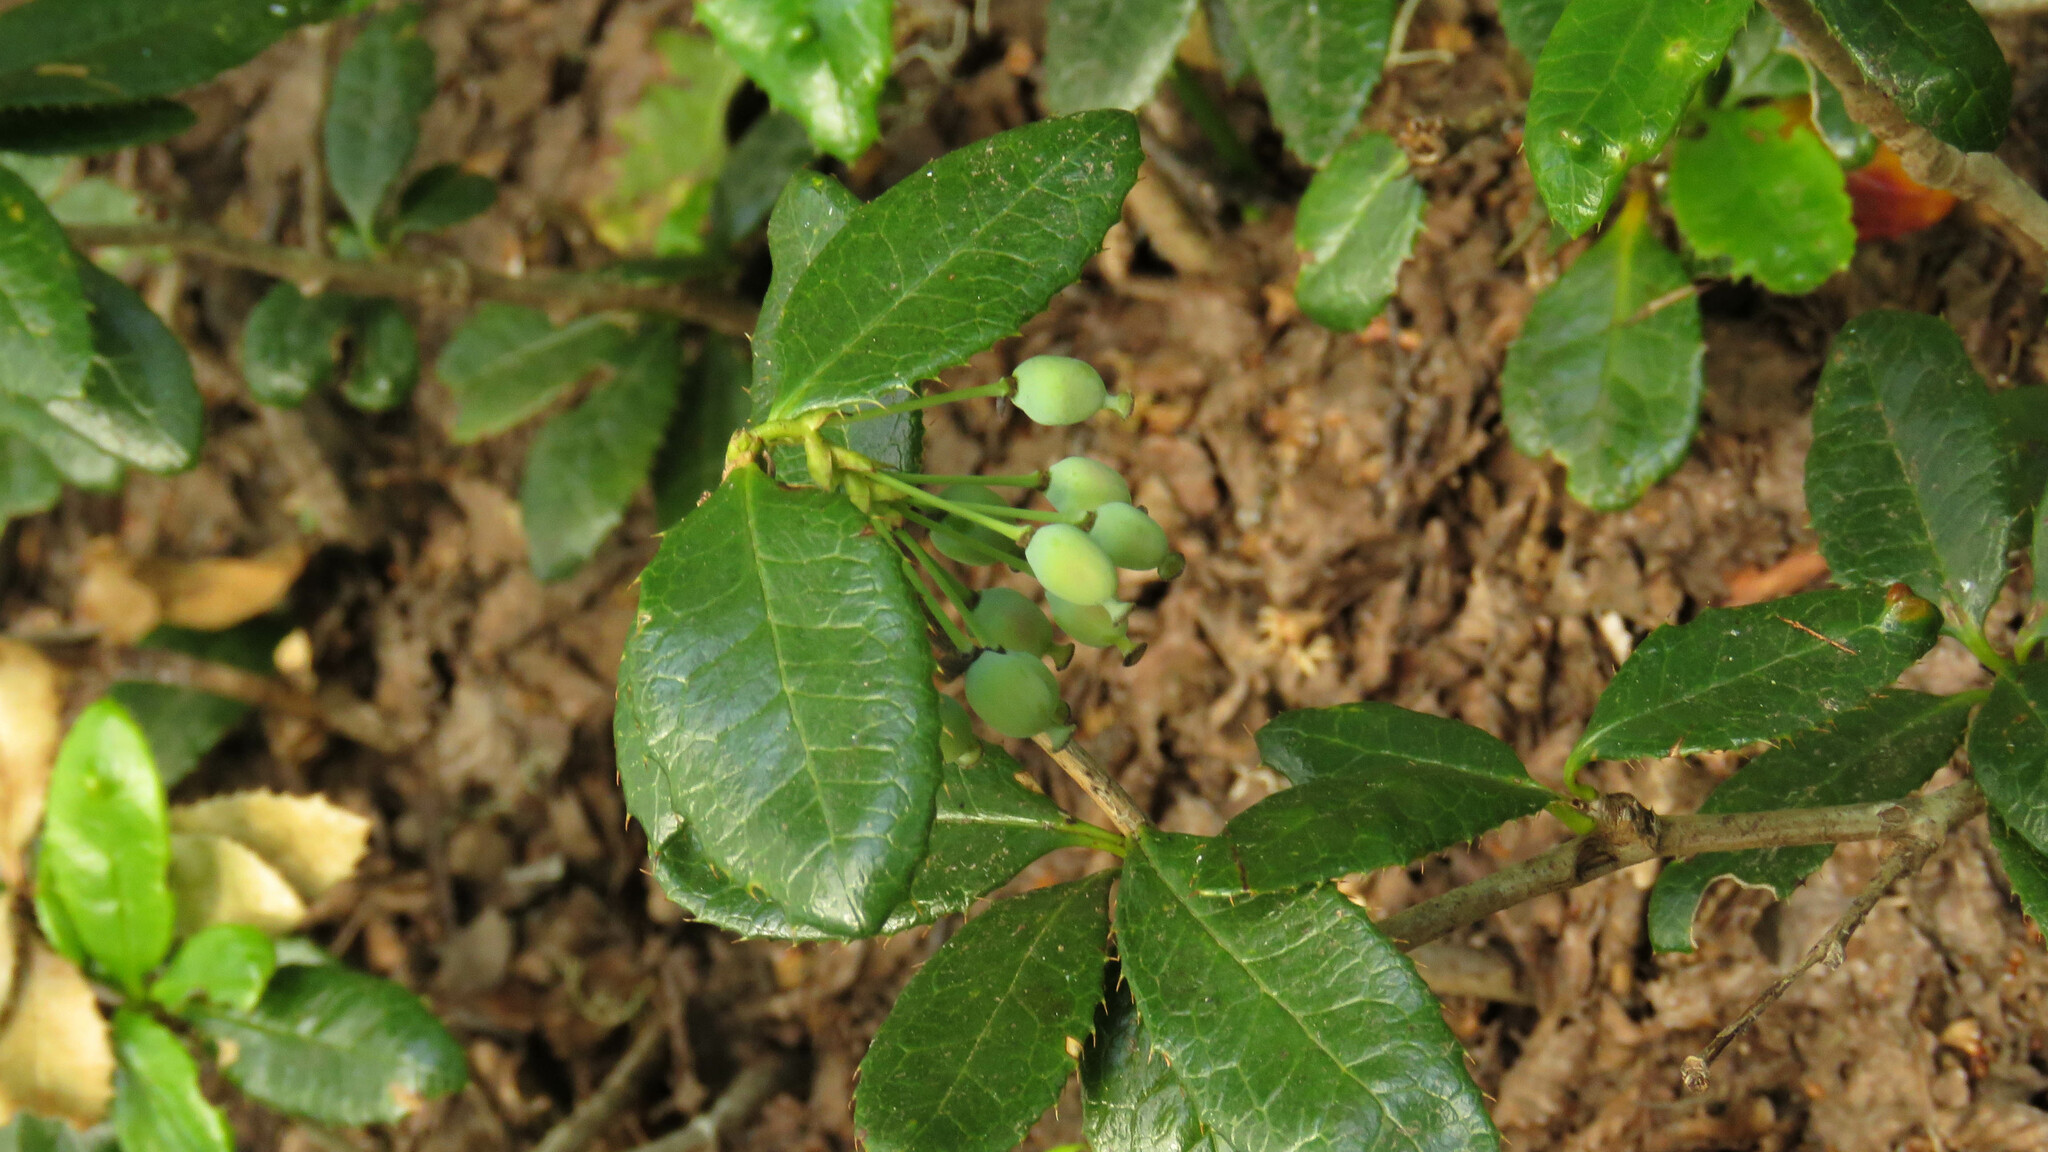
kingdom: Plantae
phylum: Tracheophyta
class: Magnoliopsida
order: Ranunculales
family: Berberidaceae
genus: Berberis
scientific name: Berberis pseudoilicifolia
